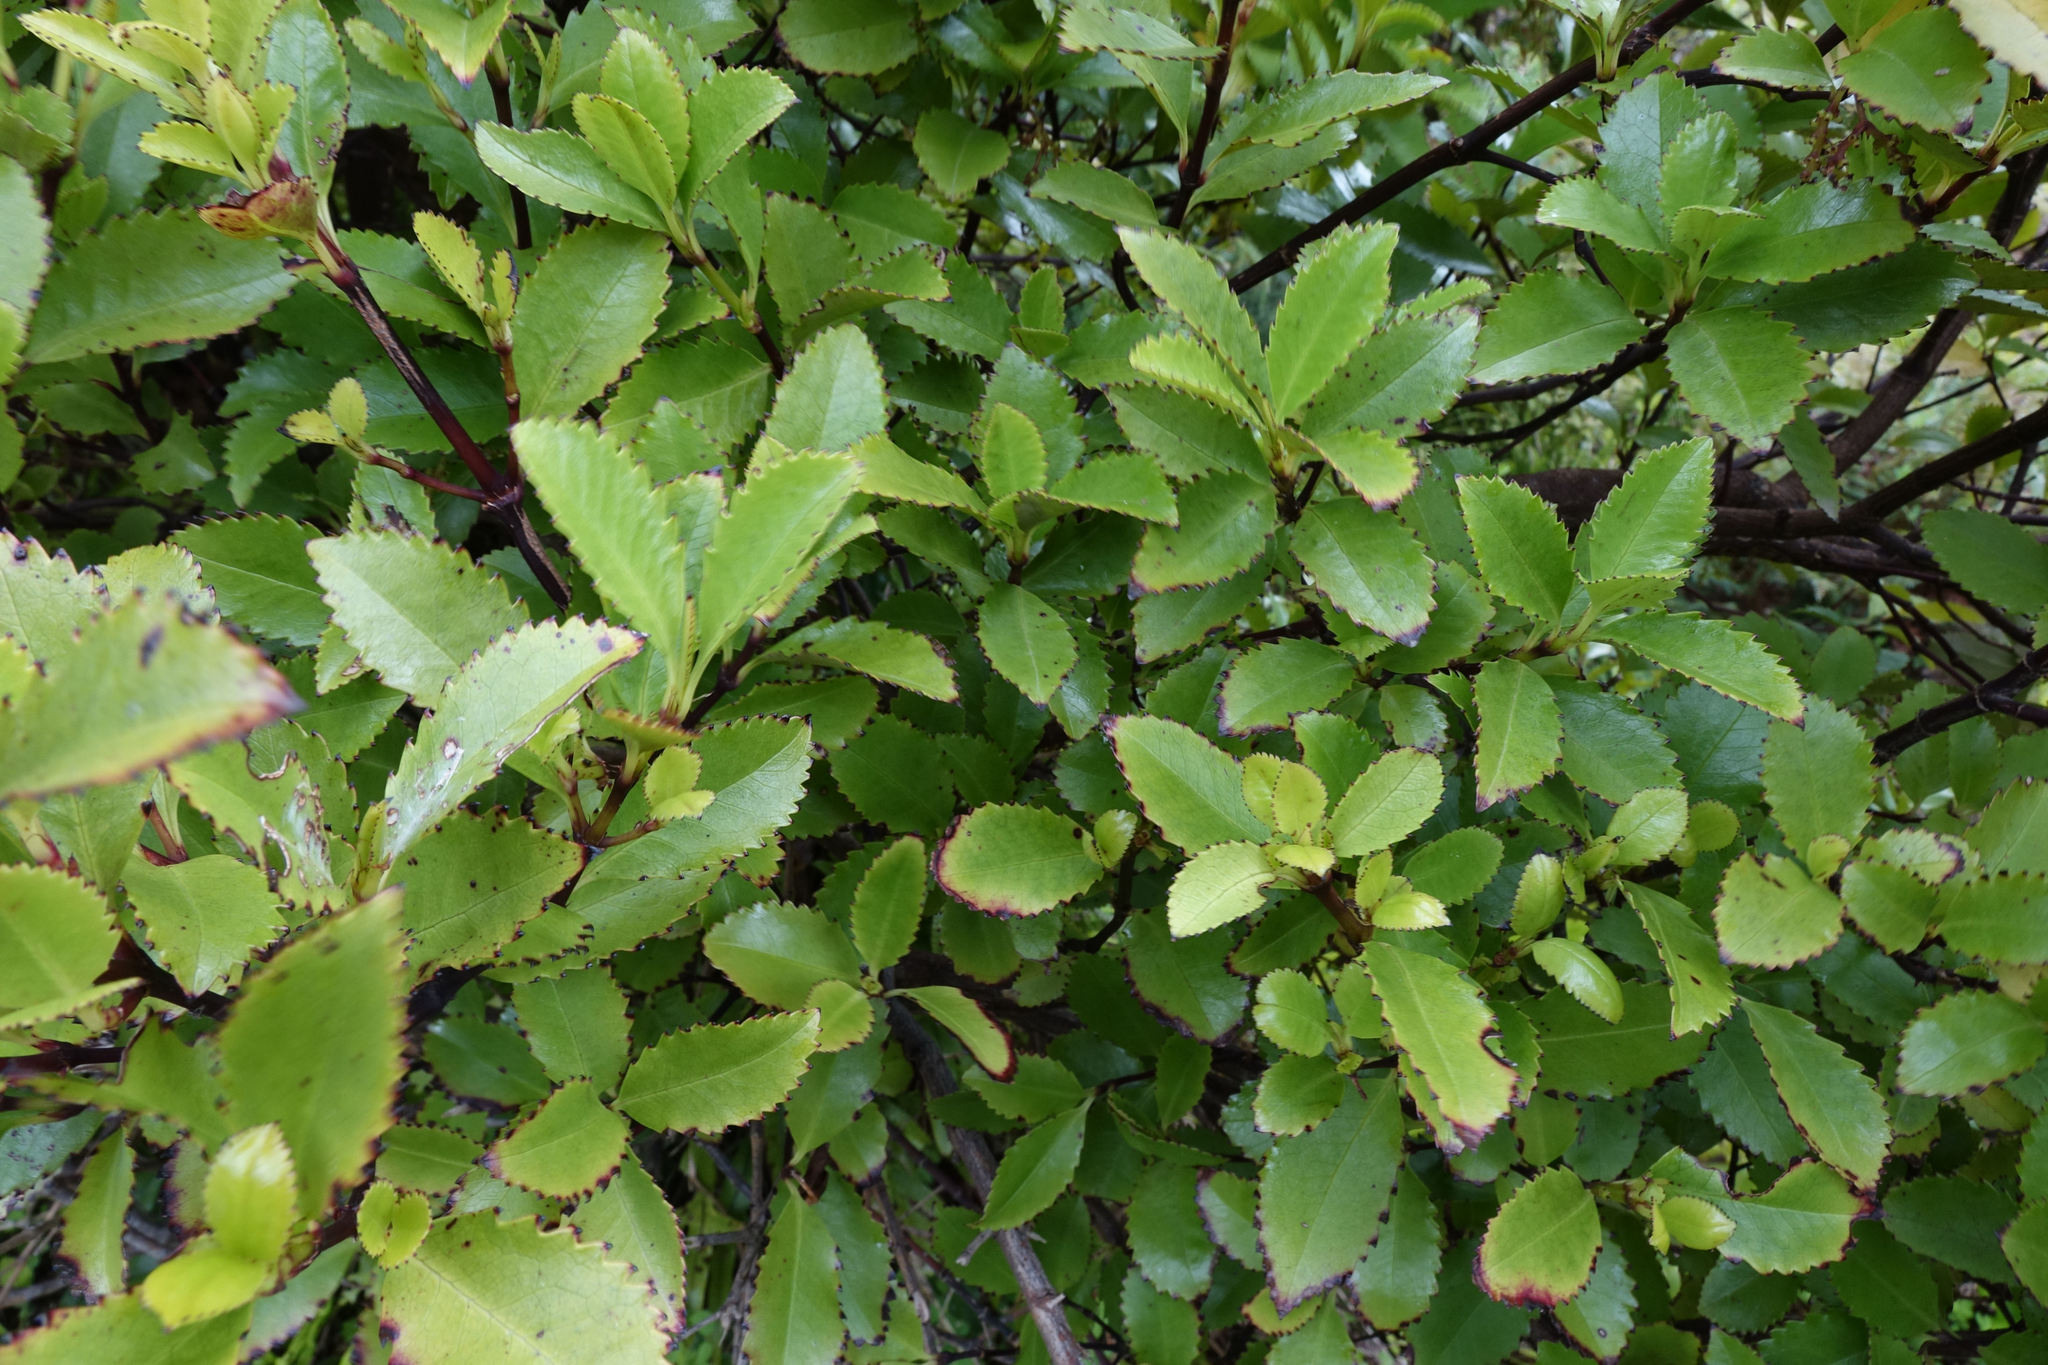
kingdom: Plantae
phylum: Tracheophyta
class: Magnoliopsida
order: Chloranthales
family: Chloranthaceae
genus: Ascarina
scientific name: Ascarina lucida
